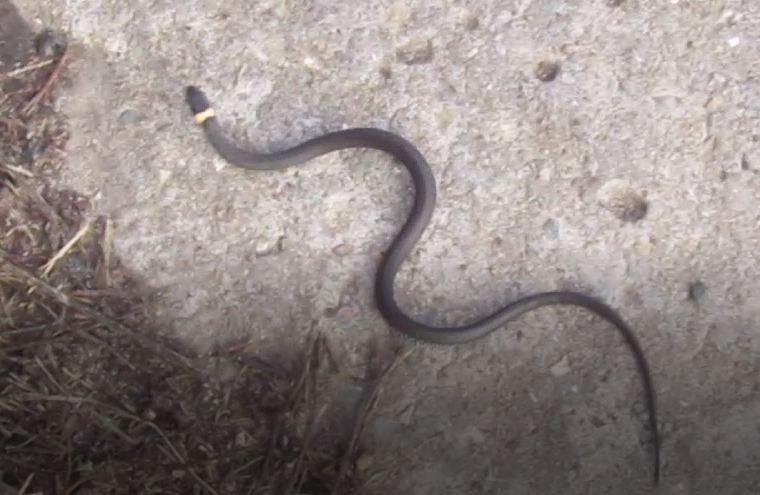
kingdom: Animalia
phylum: Chordata
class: Squamata
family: Colubridae
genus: Natrix
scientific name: Natrix natrix
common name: Grass snake
